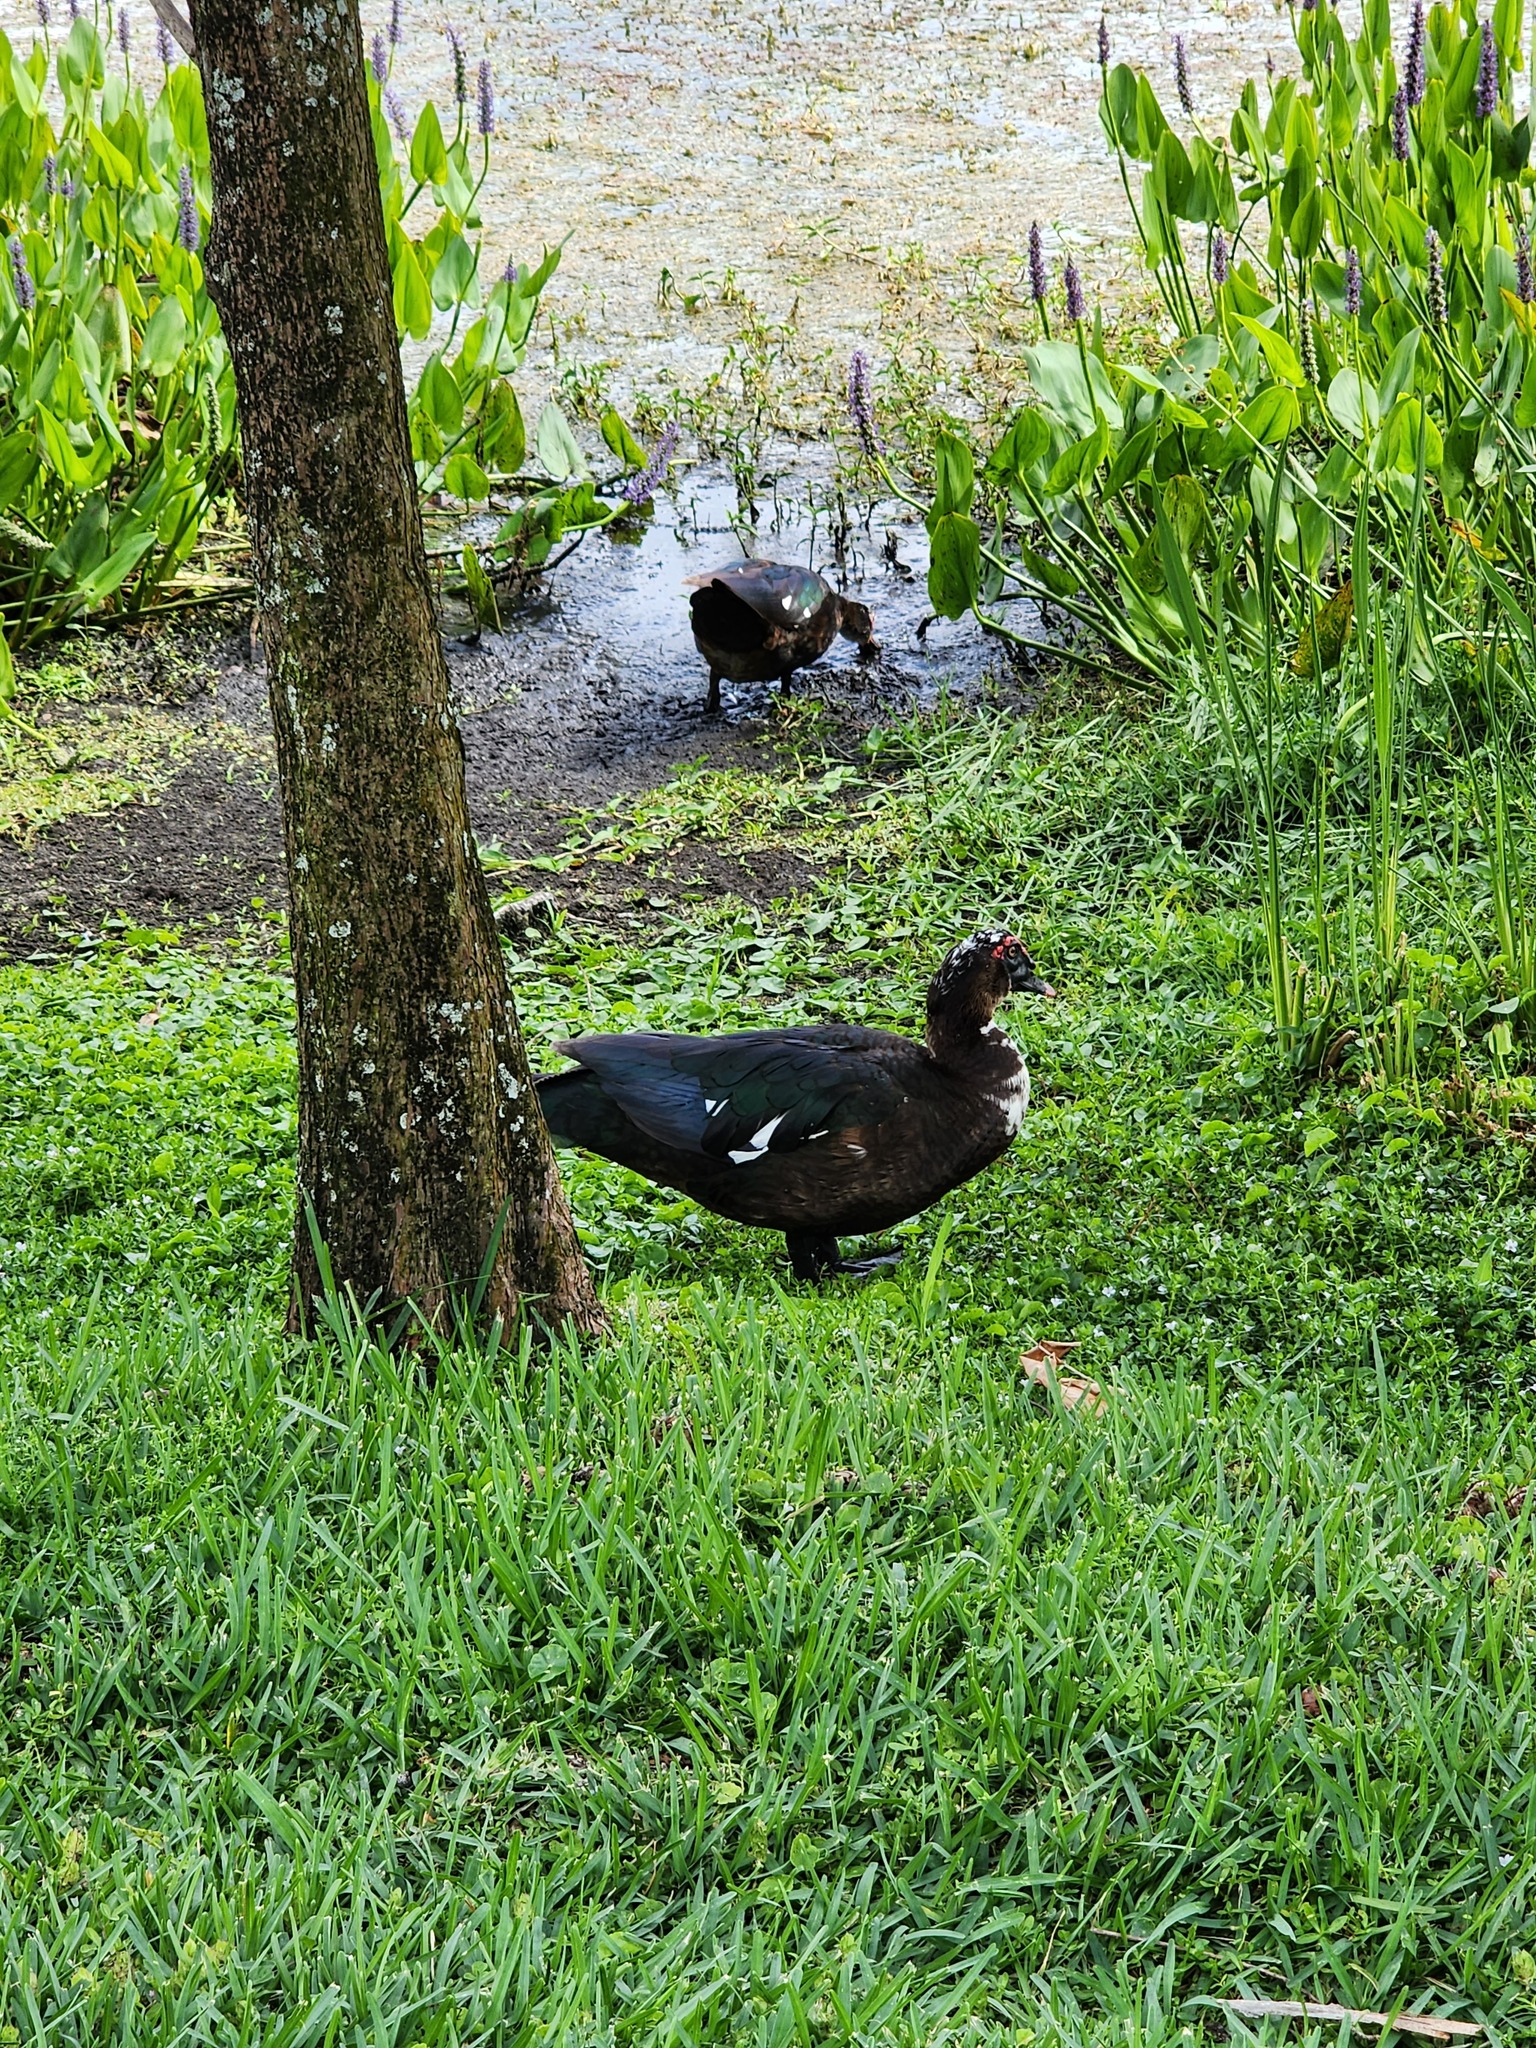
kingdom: Animalia
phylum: Chordata
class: Aves
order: Anseriformes
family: Anatidae
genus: Cairina
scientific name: Cairina moschata
